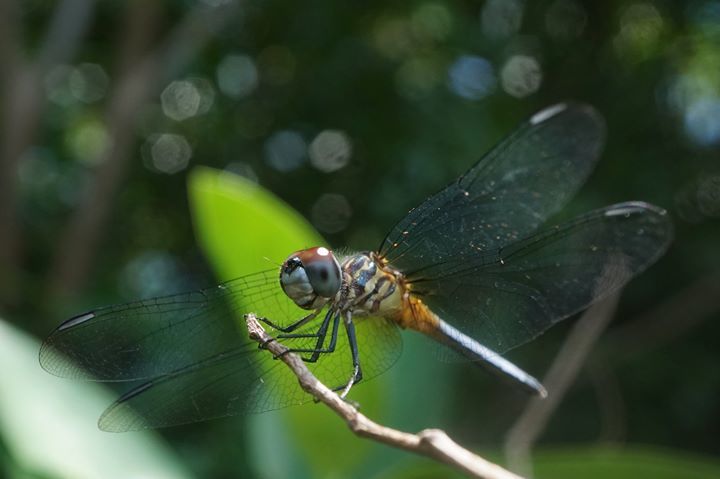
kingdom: Animalia
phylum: Arthropoda
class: Insecta
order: Odonata
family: Libellulidae
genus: Pachydiplax
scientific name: Pachydiplax longipennis
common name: Blue dasher
